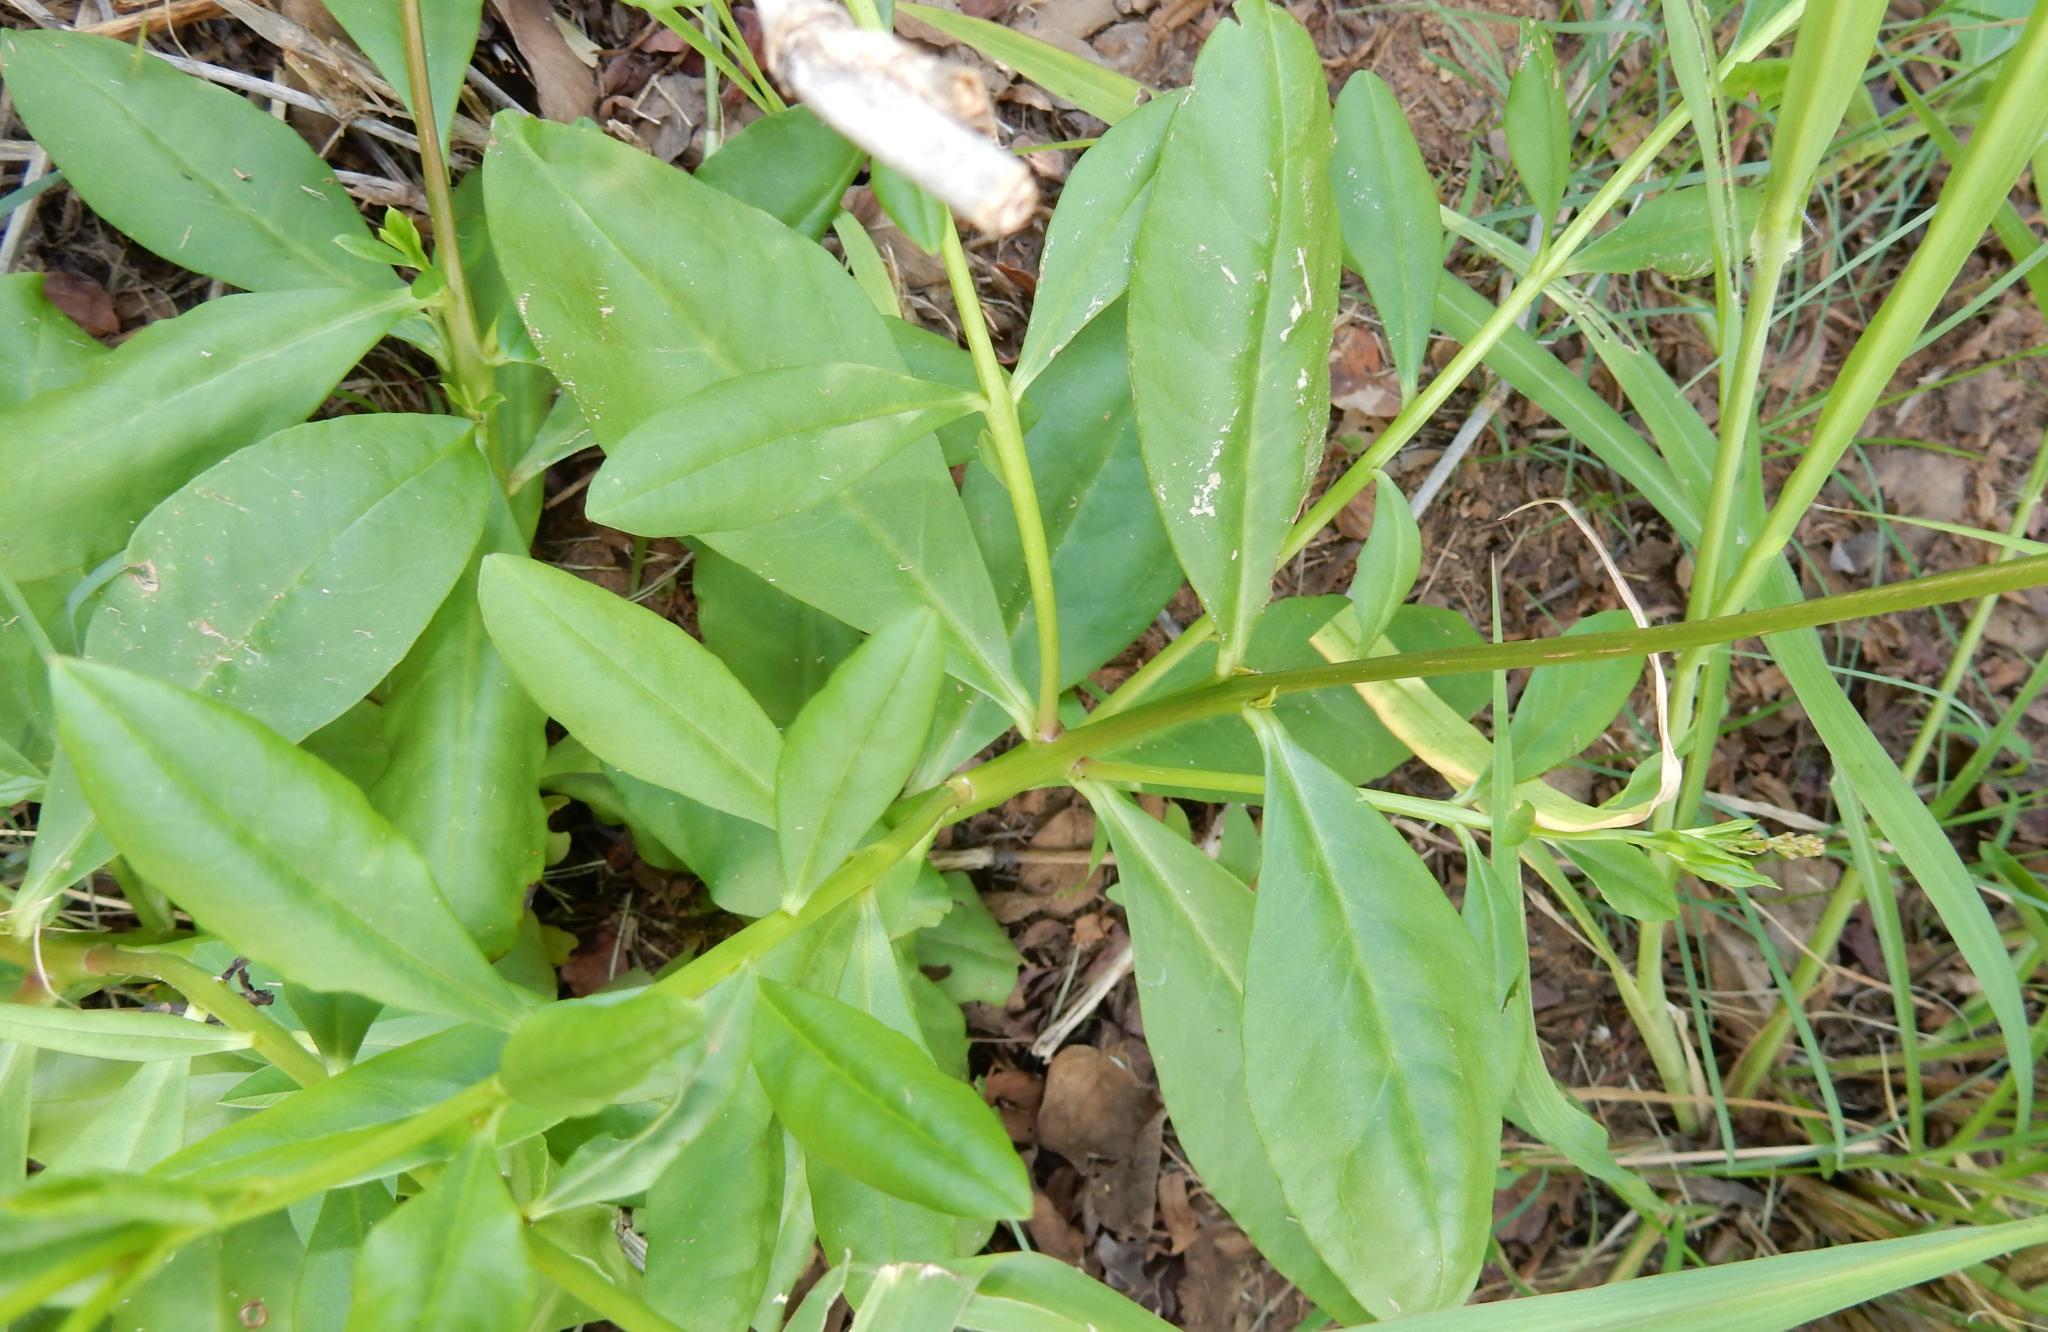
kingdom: Plantae
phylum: Tracheophyta
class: Magnoliopsida
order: Caryophyllales
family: Talinaceae
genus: Talinum
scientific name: Talinum paniculatum
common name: Jewels of opar
